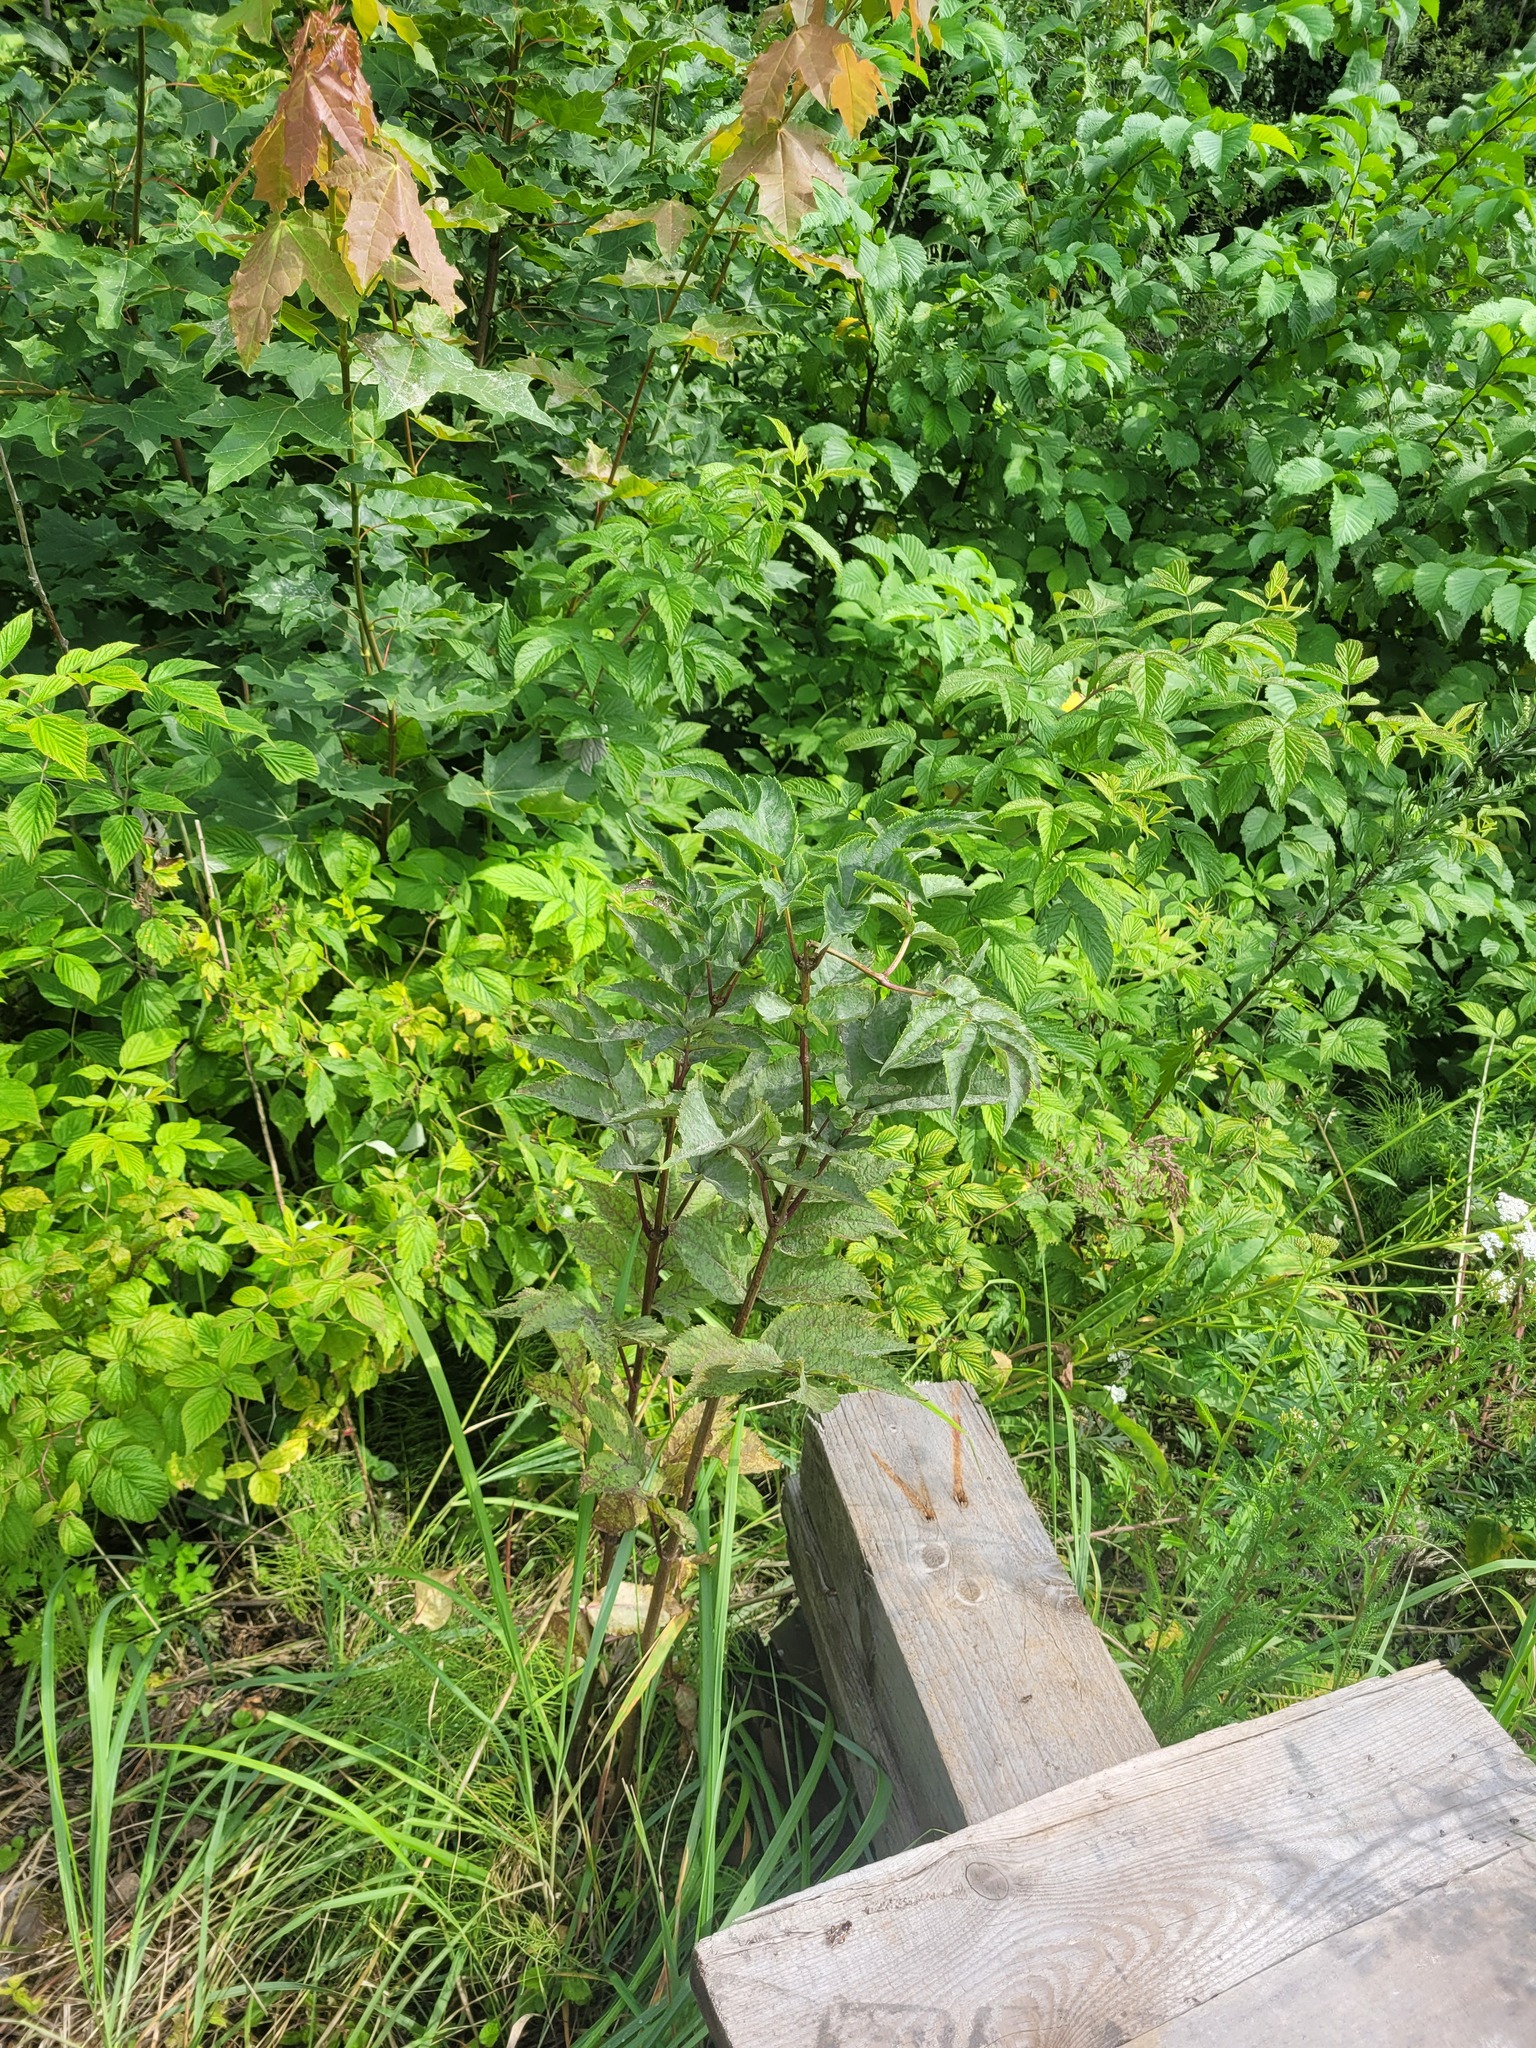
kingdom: Plantae
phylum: Tracheophyta
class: Magnoliopsida
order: Dipsacales
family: Viburnaceae
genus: Sambucus
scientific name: Sambucus racemosa
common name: Red-berried elder
